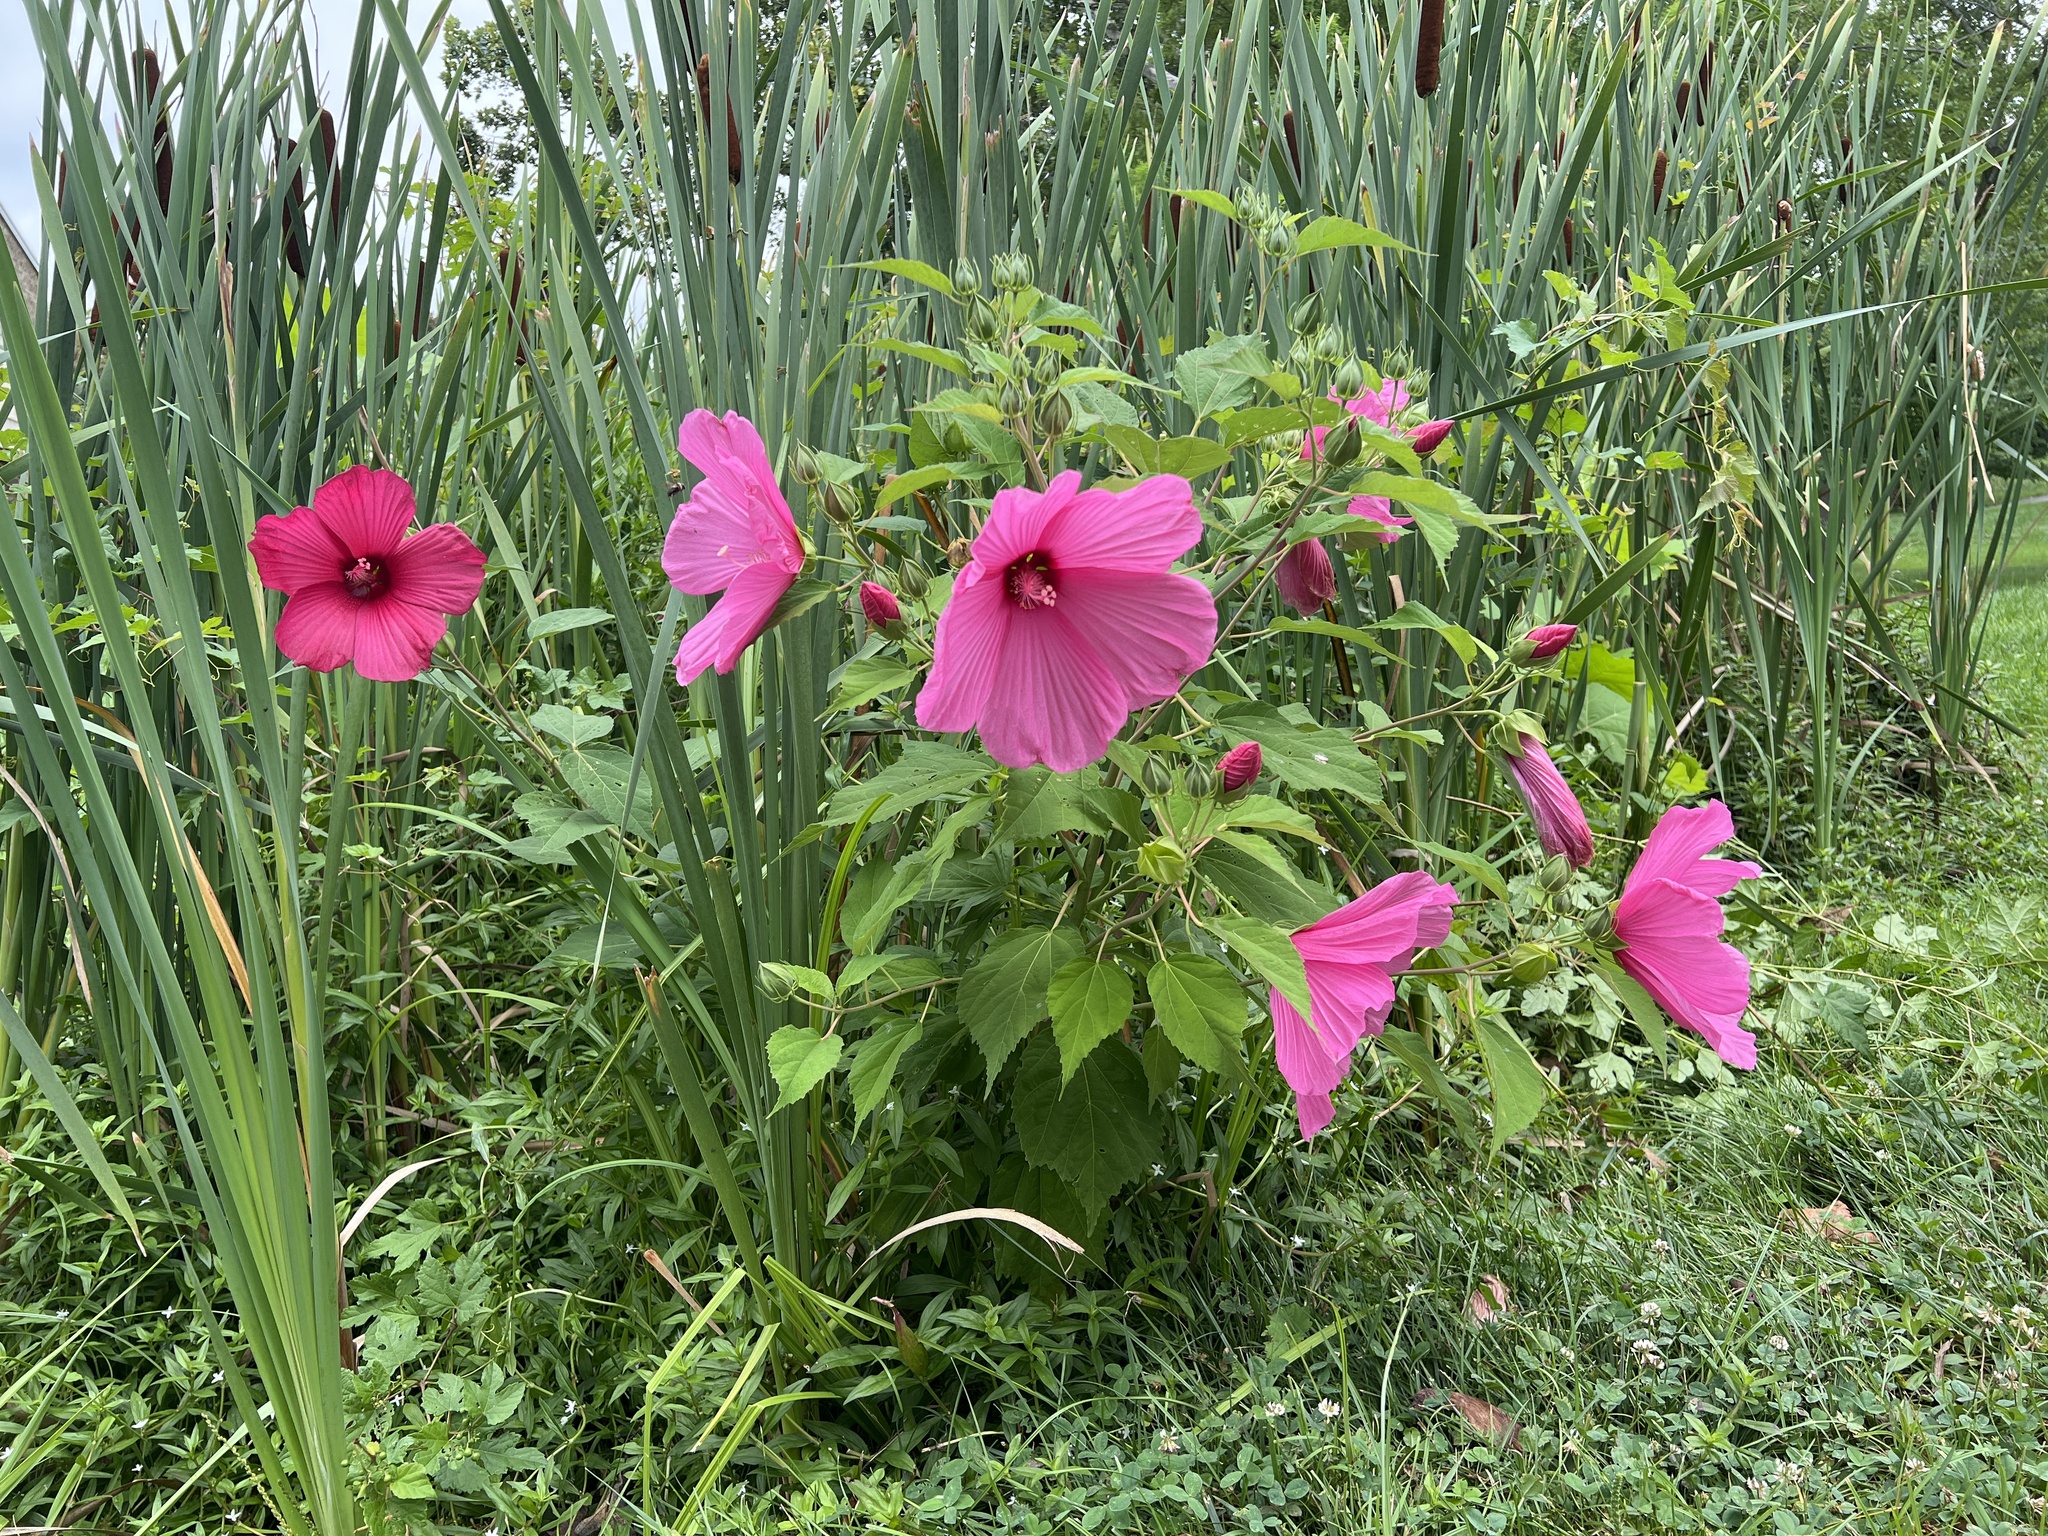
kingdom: Plantae
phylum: Tracheophyta
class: Magnoliopsida
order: Malvales
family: Malvaceae
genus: Hibiscus
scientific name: Hibiscus moscheutos
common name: Common rose-mallow
